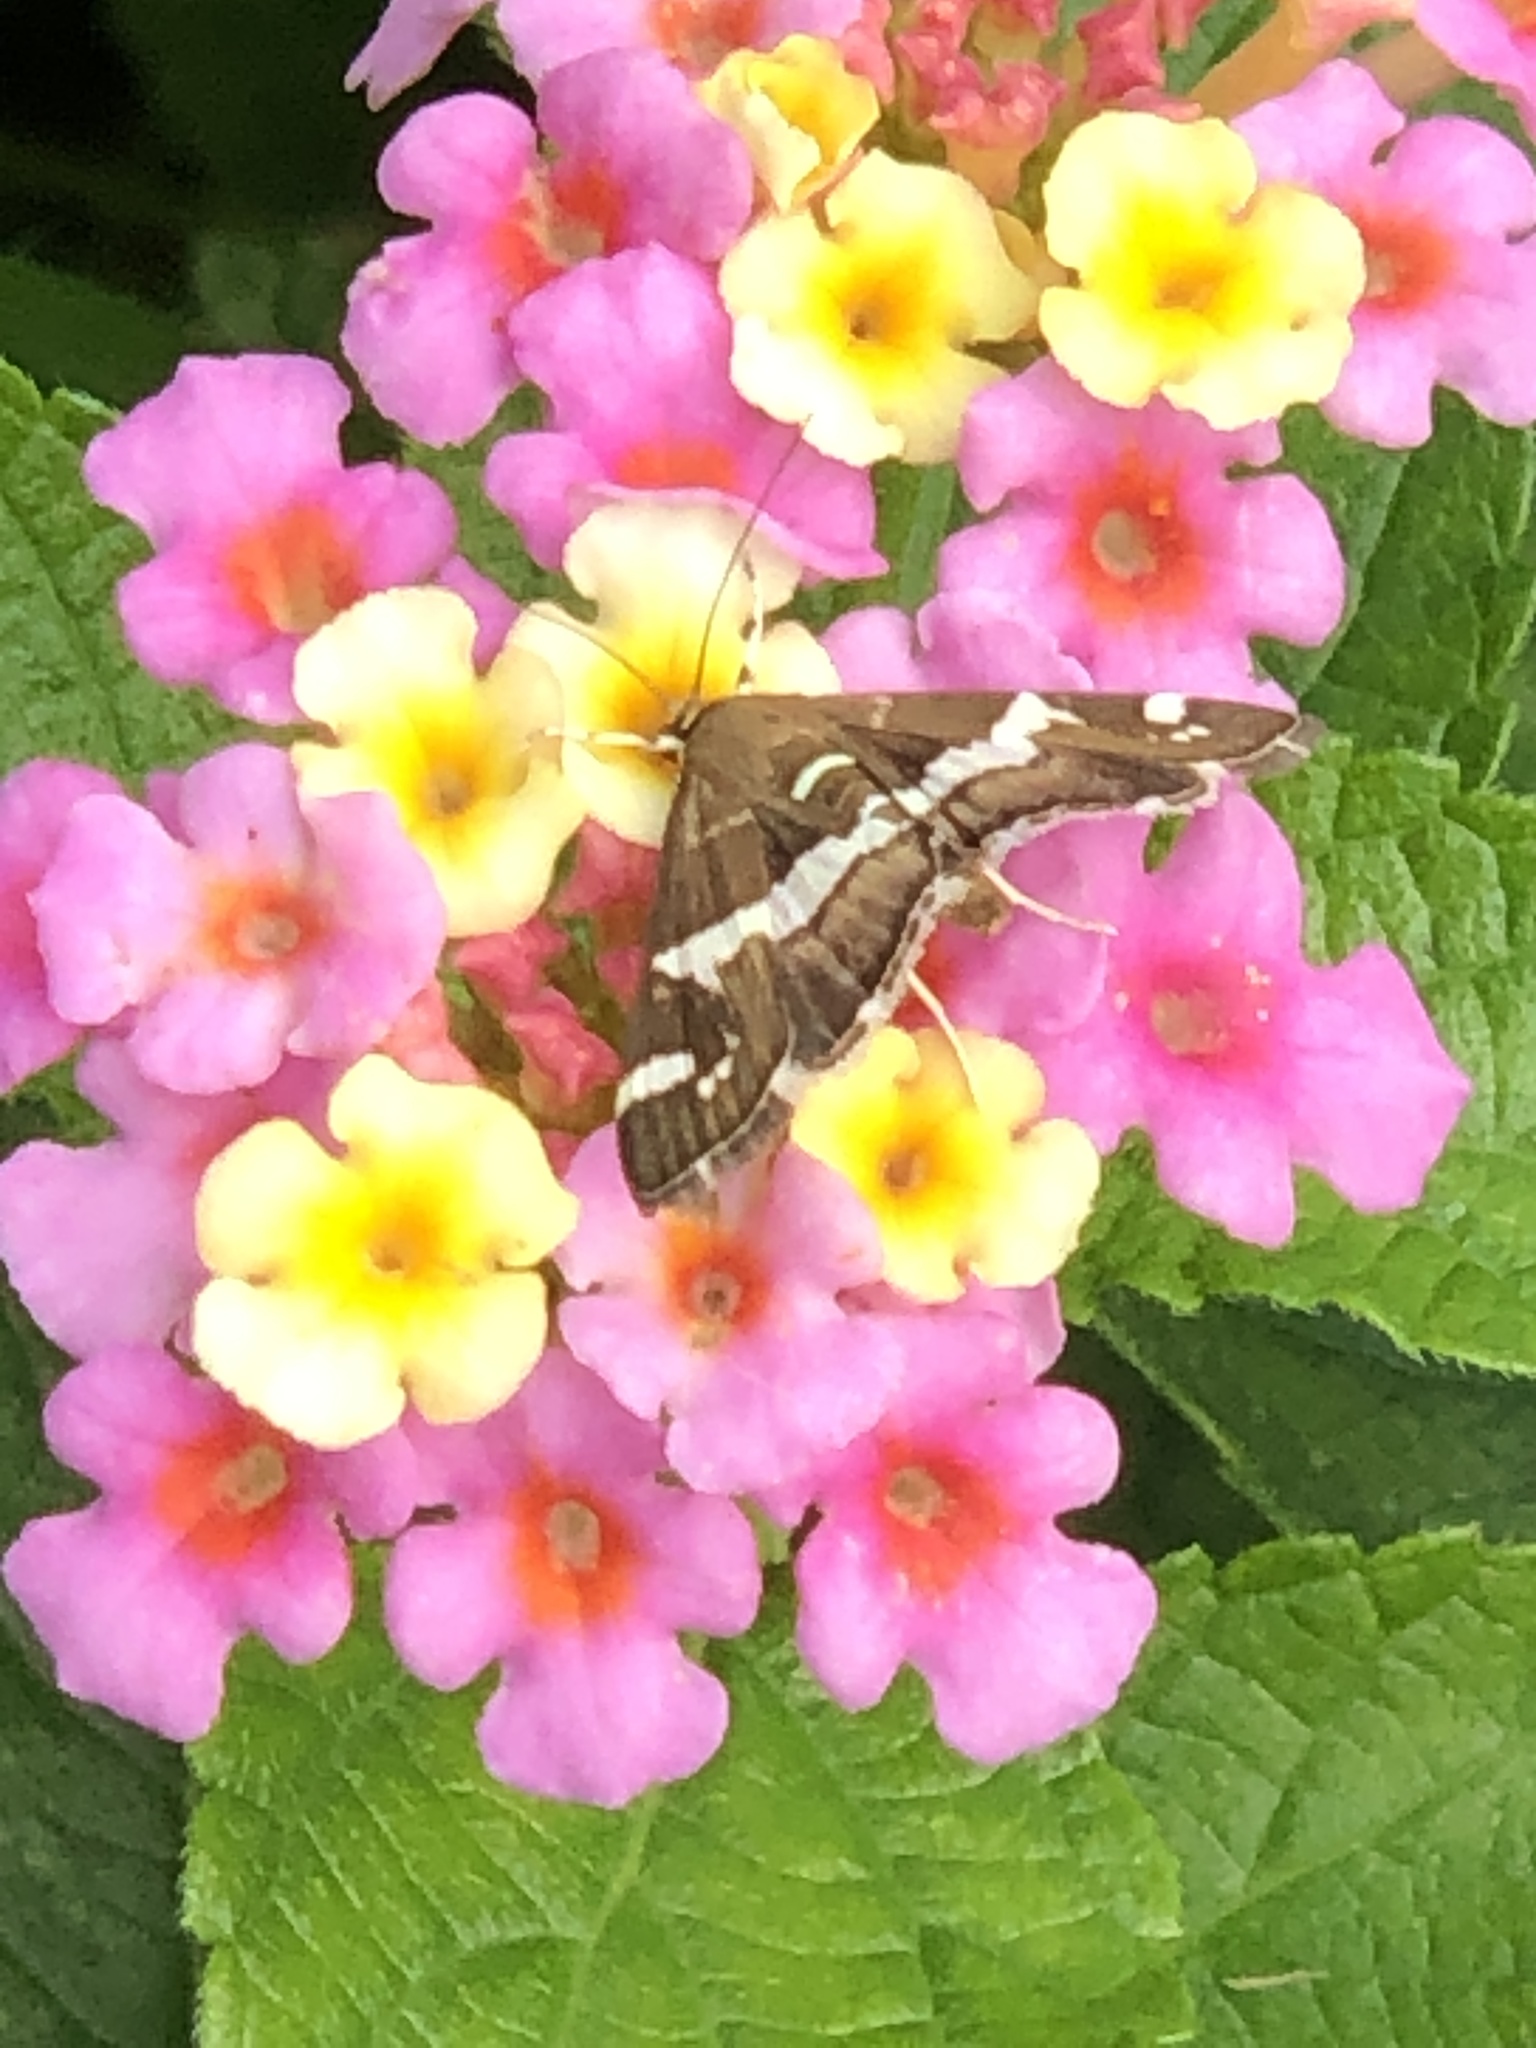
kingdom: Animalia
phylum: Arthropoda
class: Insecta
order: Lepidoptera
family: Crambidae
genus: Spoladea
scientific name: Spoladea recurvalis
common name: Beet webworm moth
